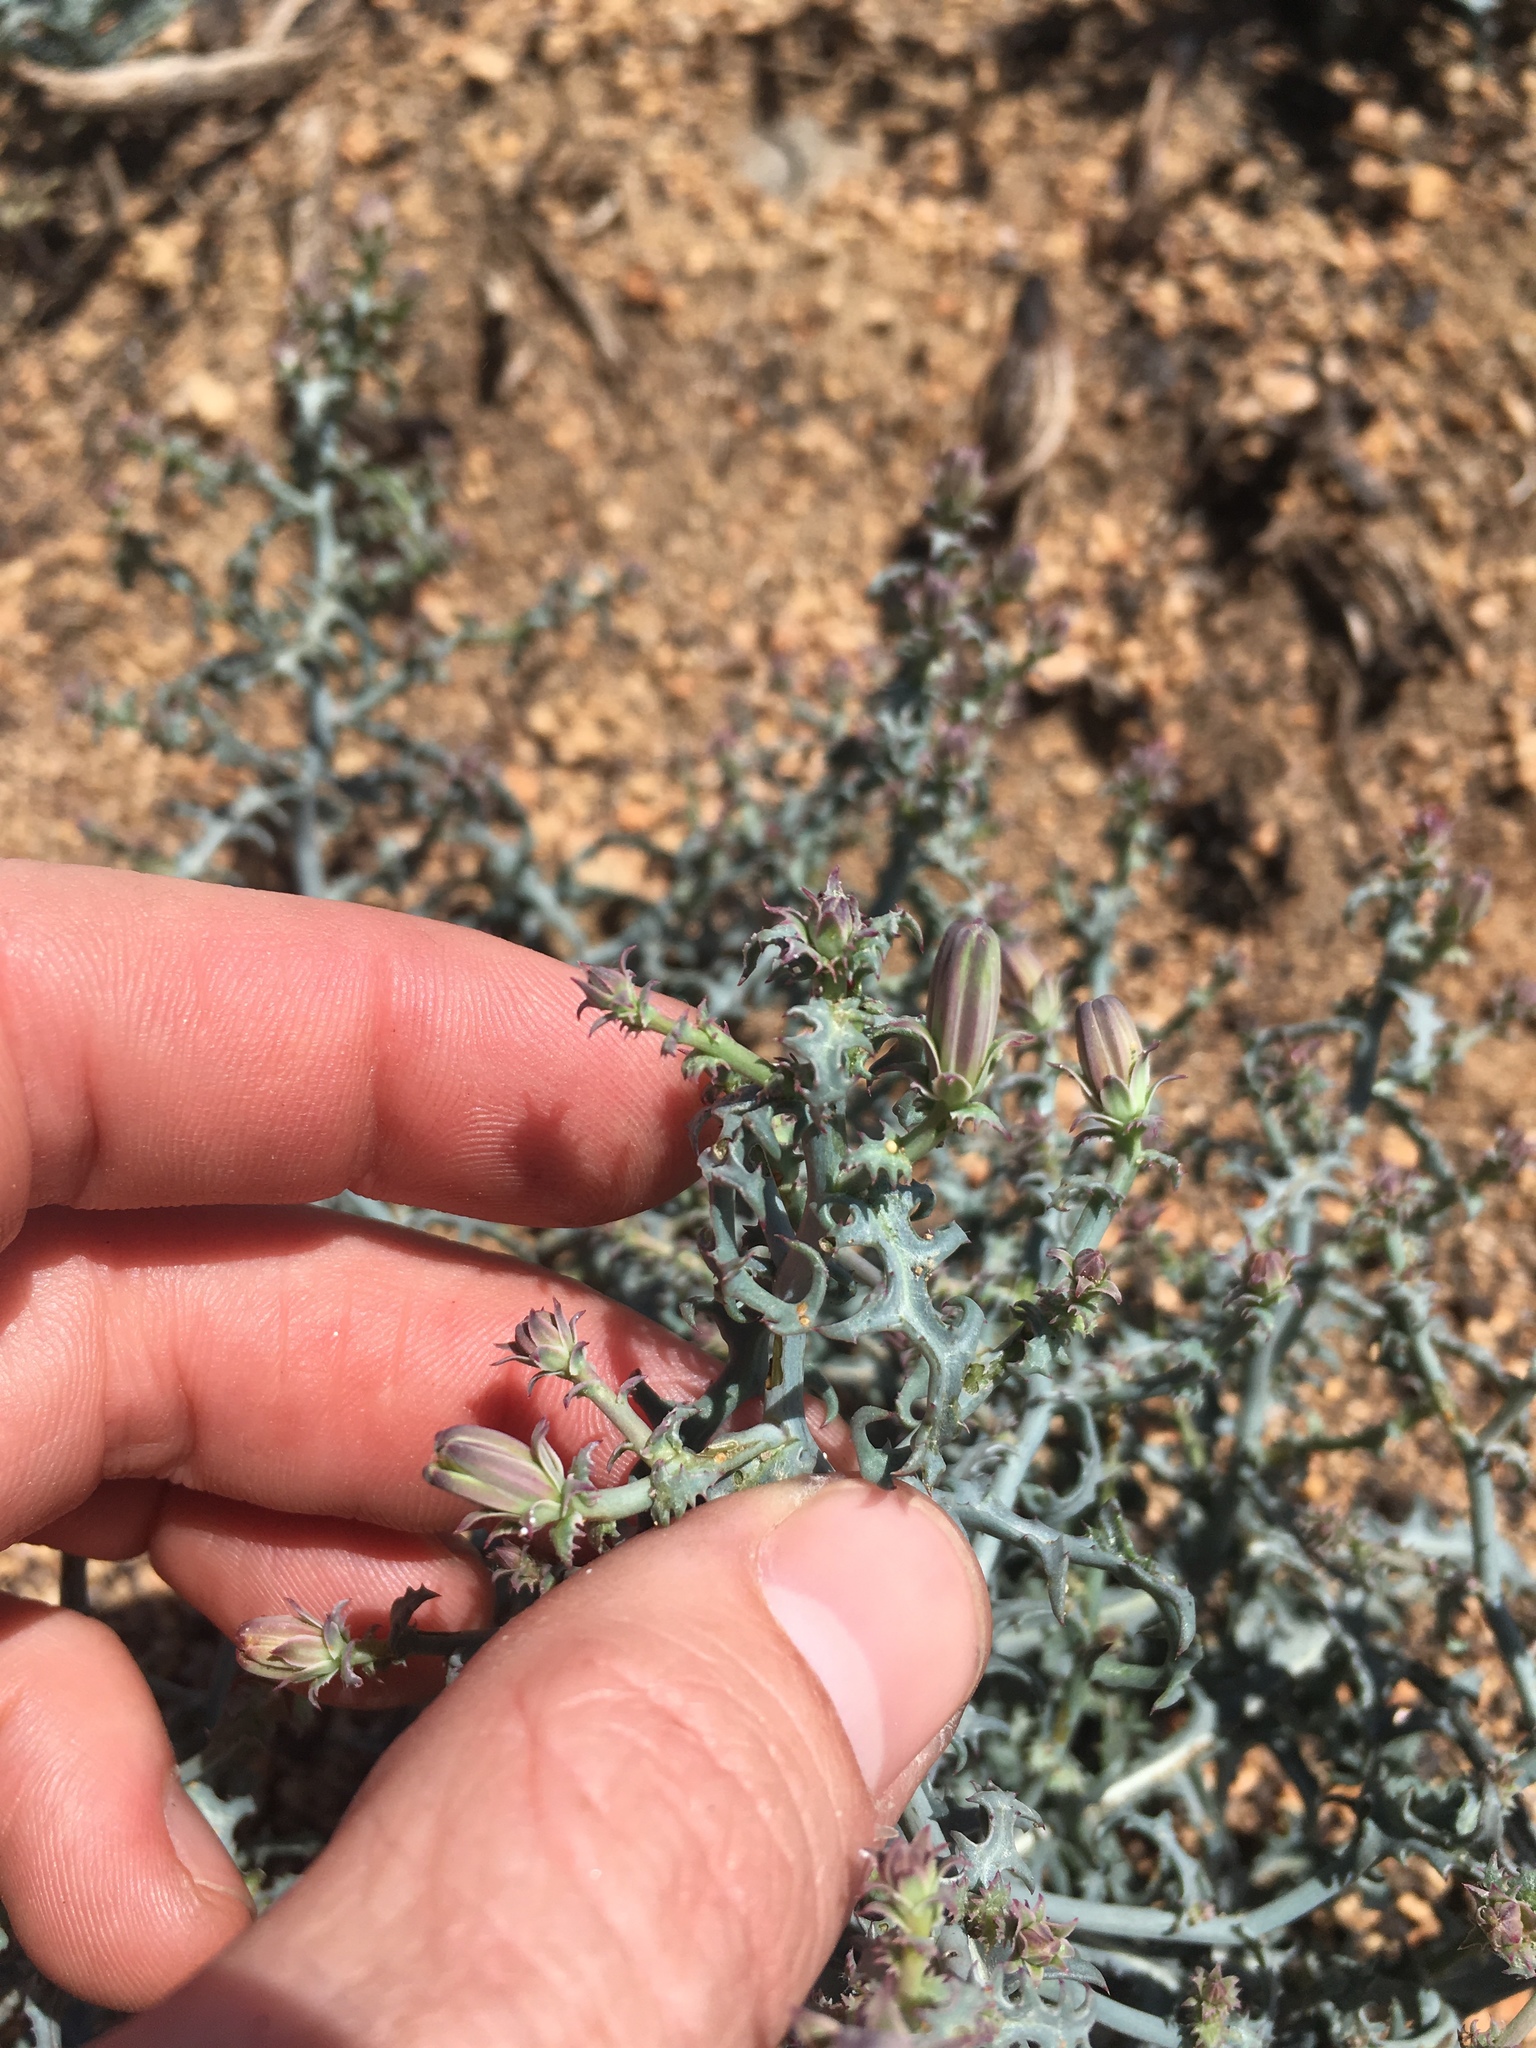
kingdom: Plantae
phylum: Tracheophyta
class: Magnoliopsida
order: Asterales
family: Asteraceae
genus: Stephanomeria
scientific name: Stephanomeria parryi
